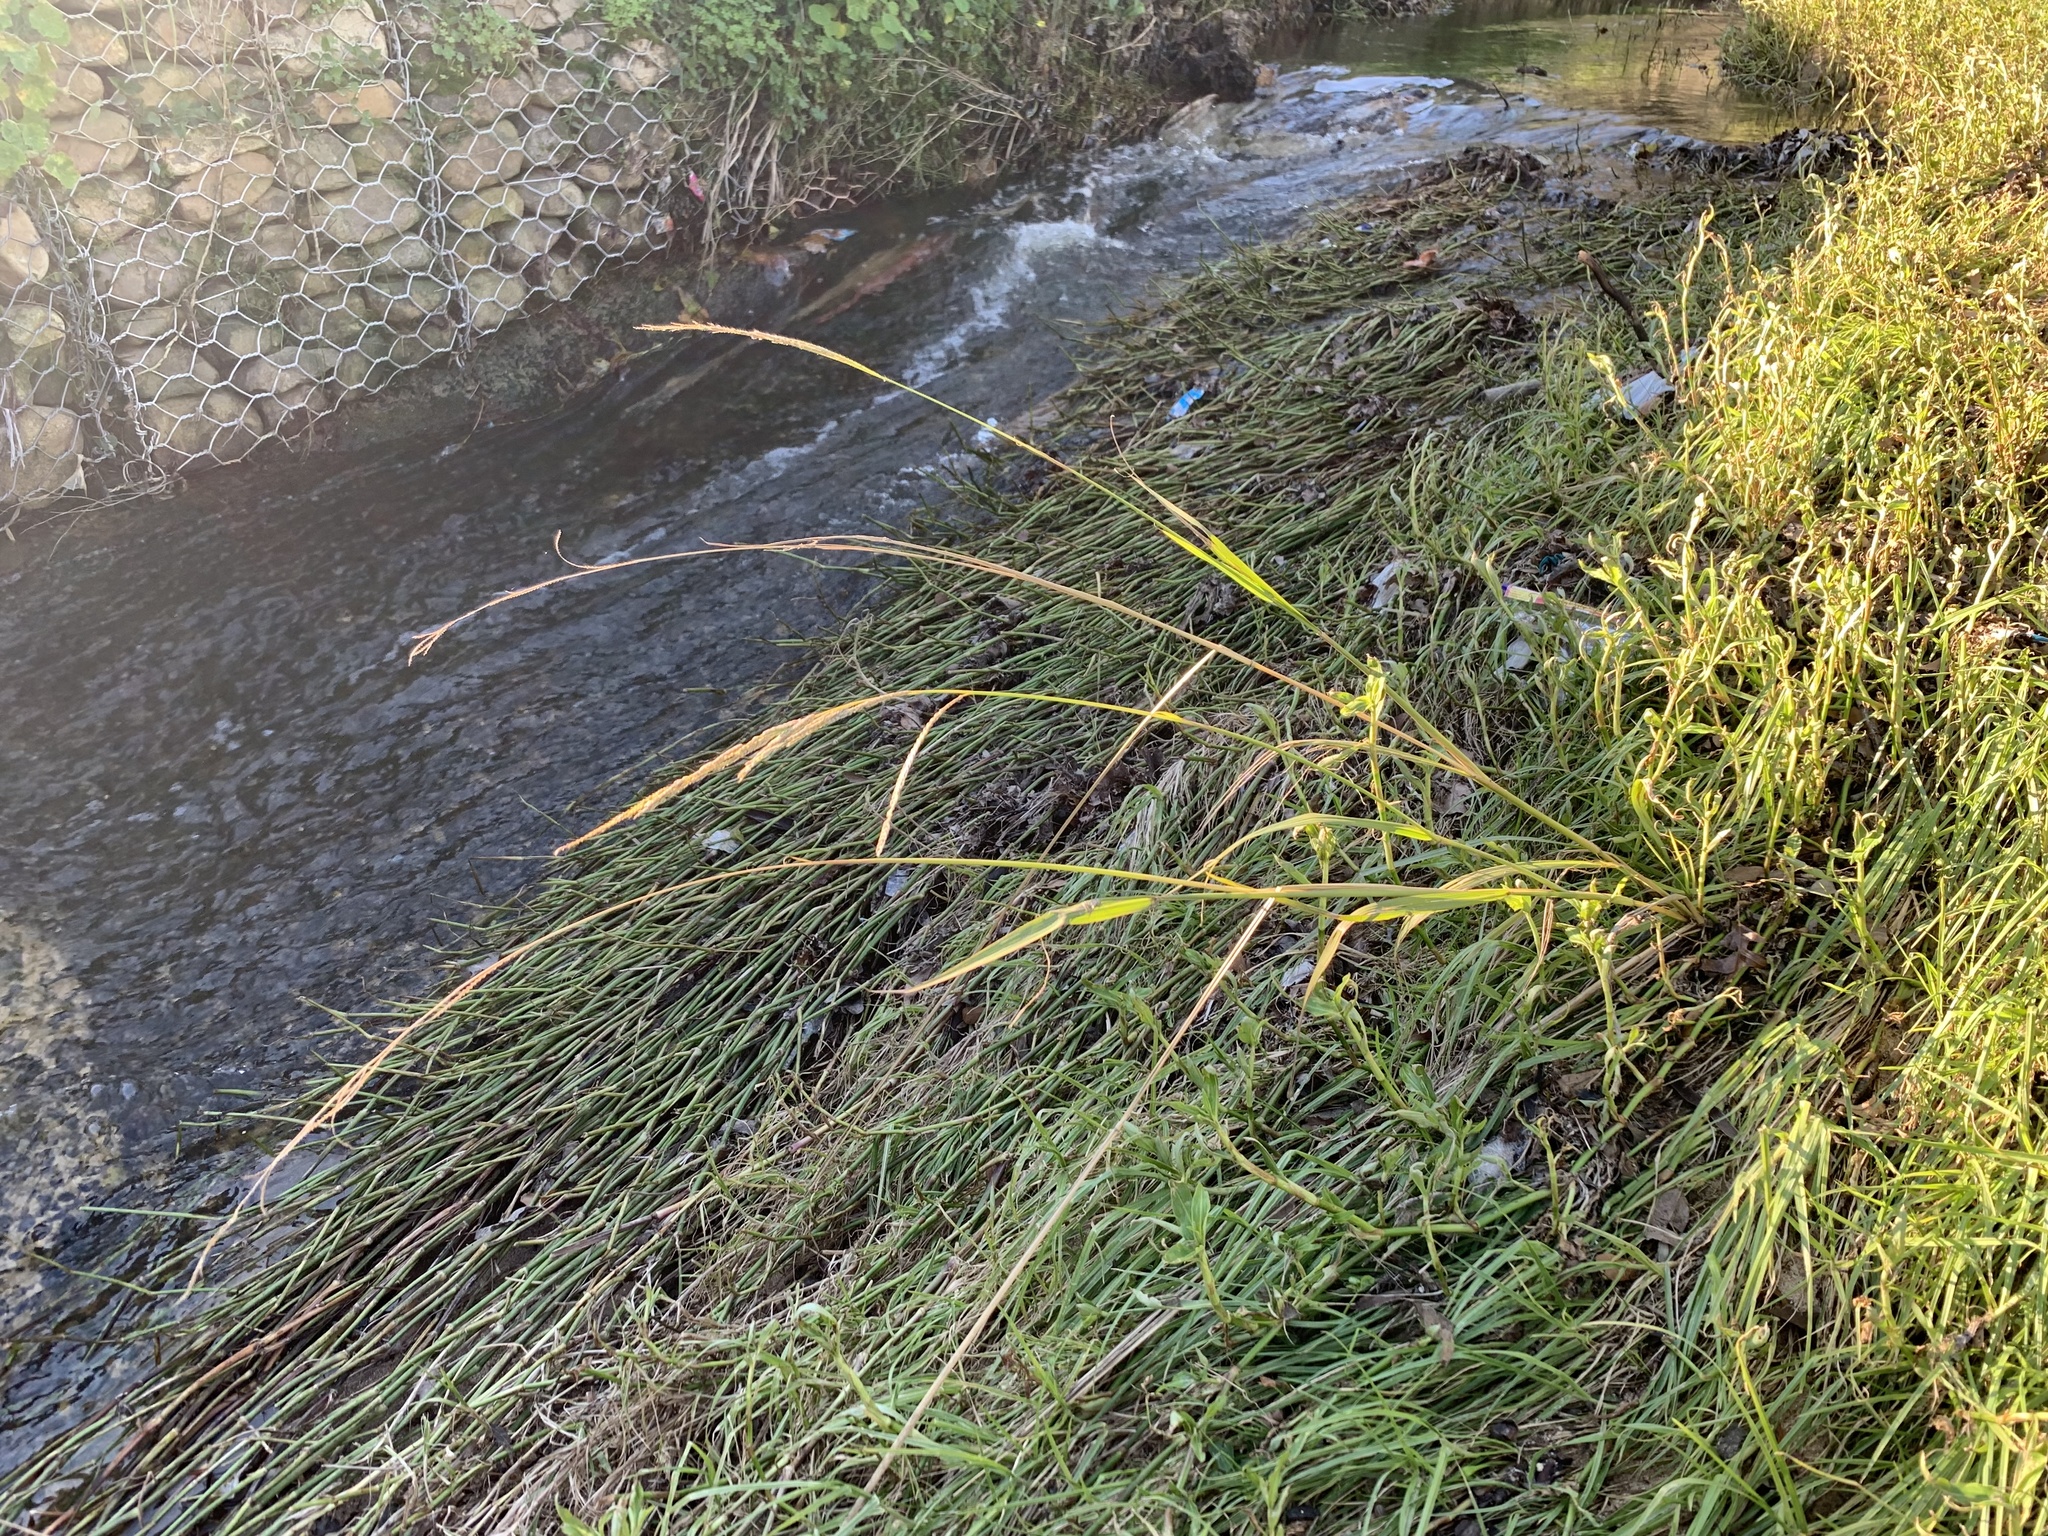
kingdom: Plantae
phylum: Tracheophyta
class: Liliopsida
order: Poales
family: Poaceae
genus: Paspalum
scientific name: Paspalum urvillei
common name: Vasey's grass
